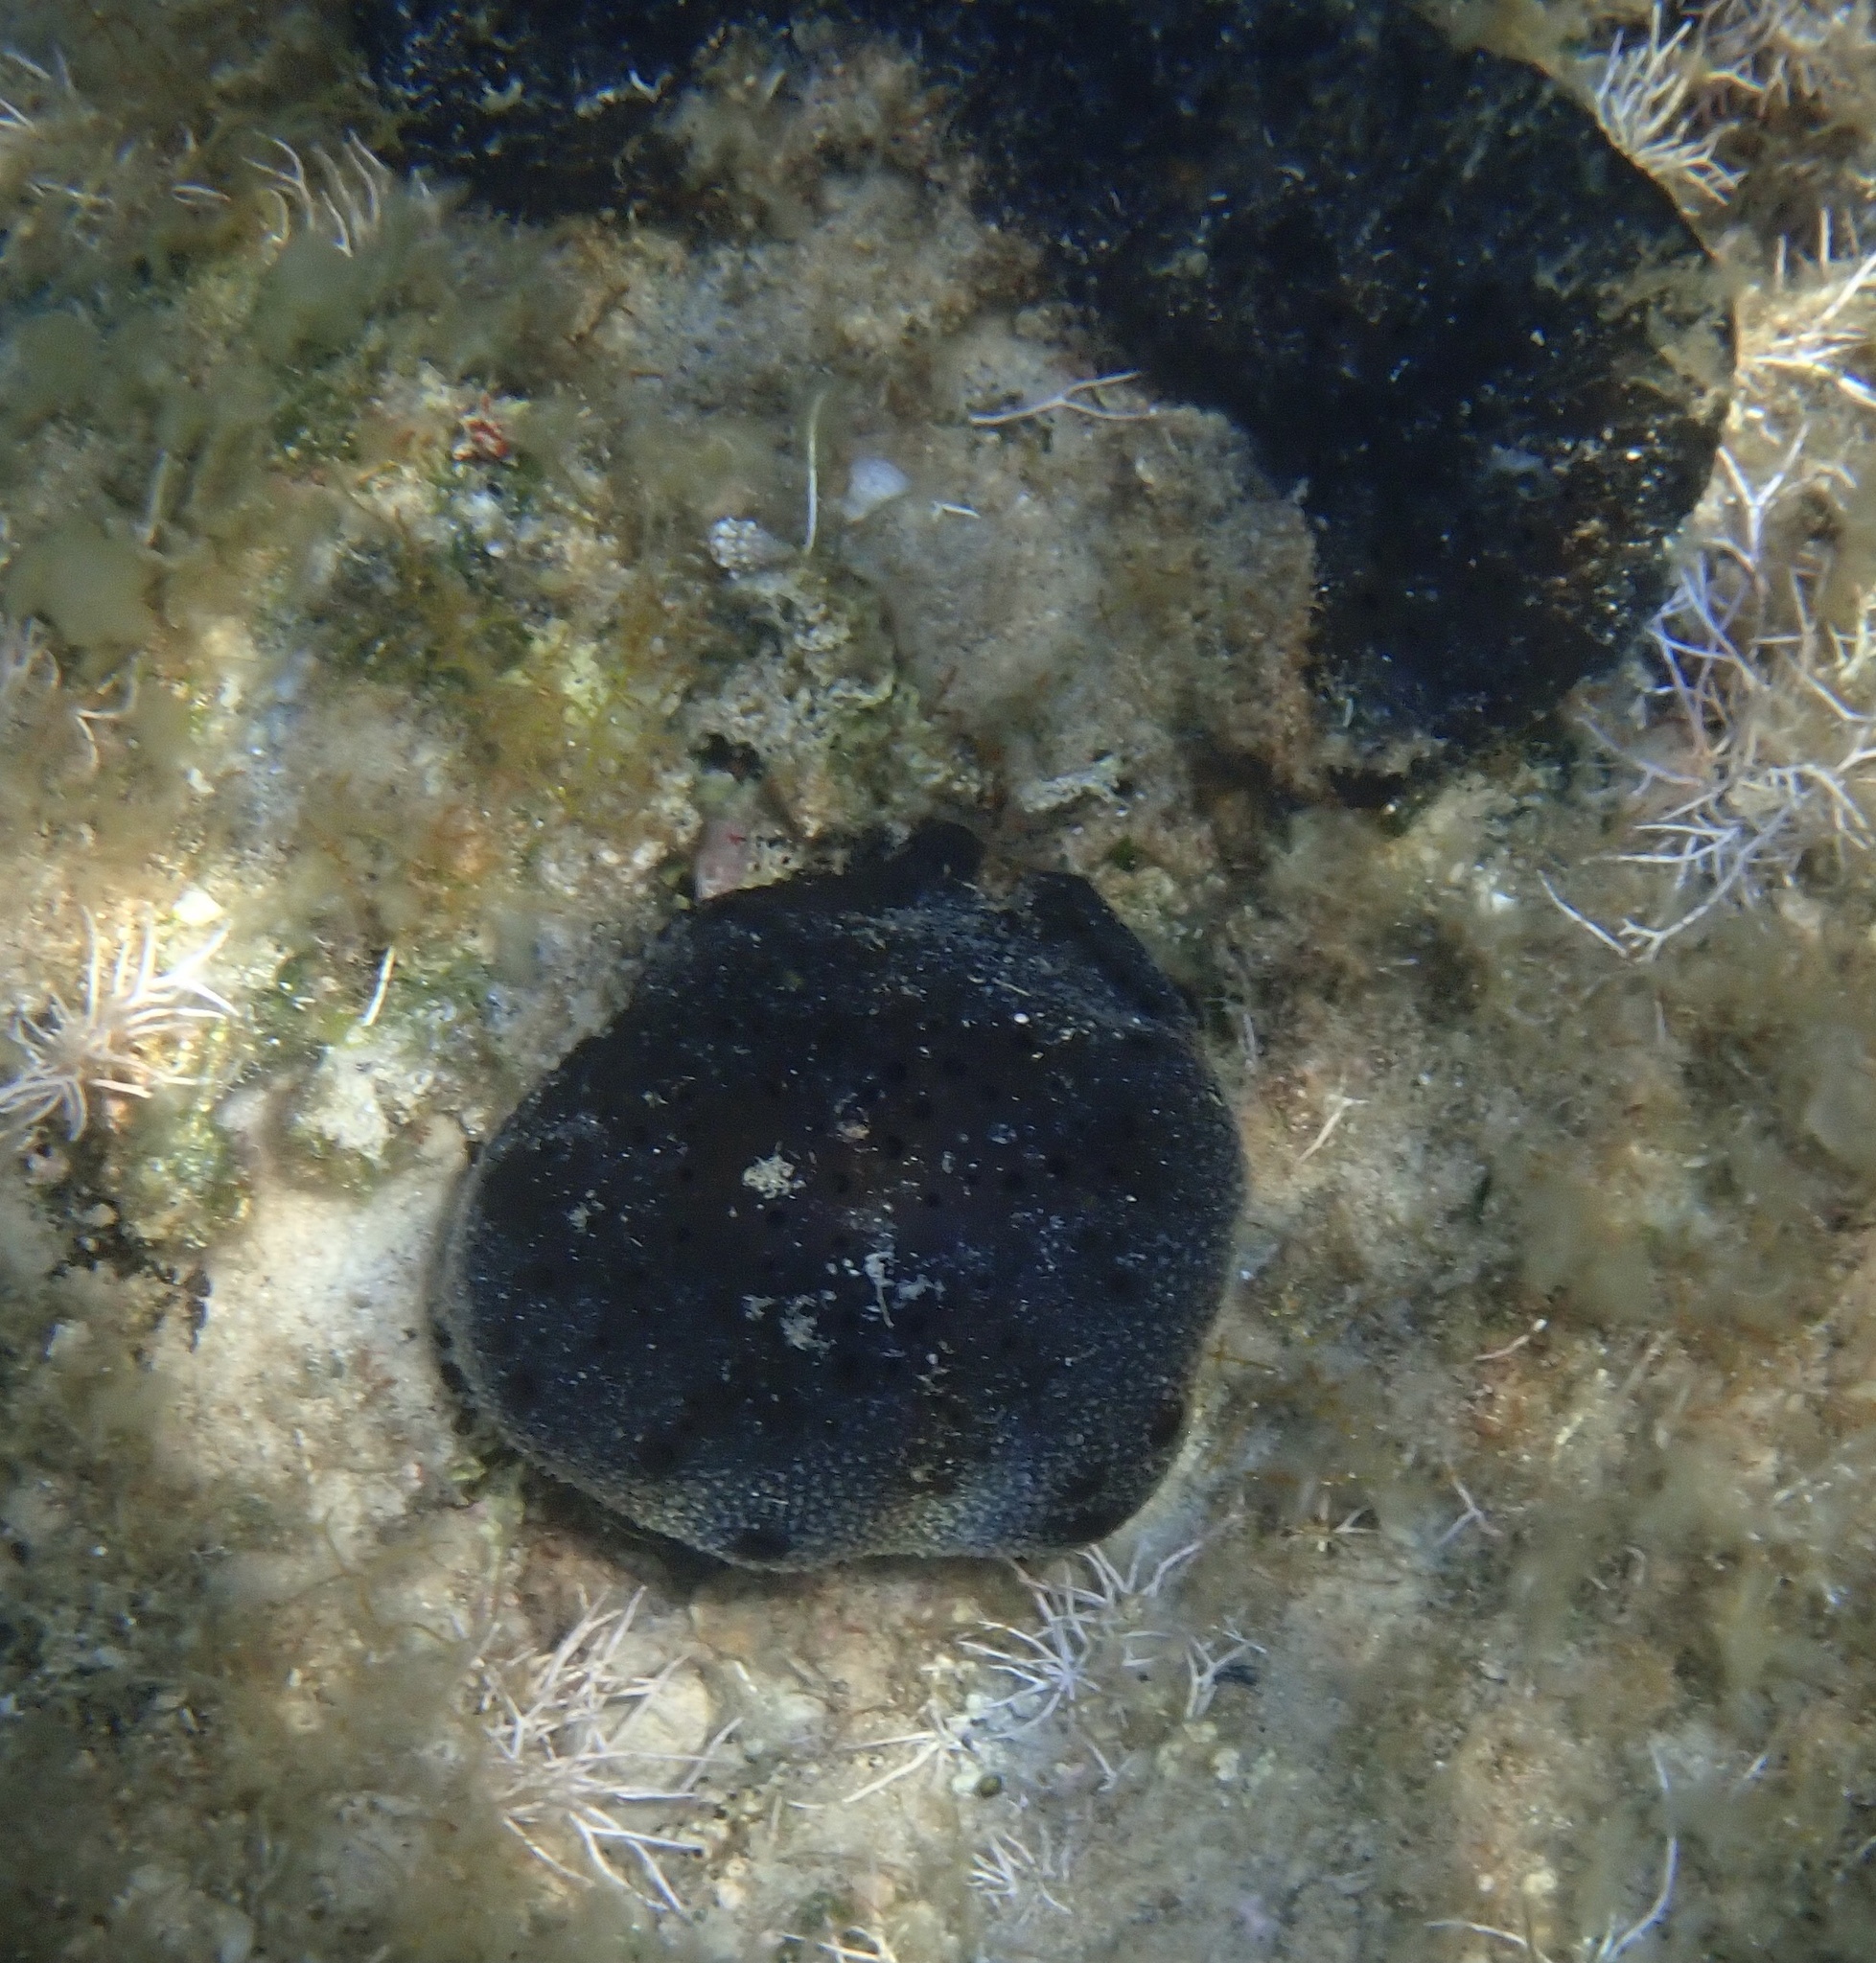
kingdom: Animalia
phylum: Porifera
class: Demospongiae
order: Dictyoceratida
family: Irciniidae
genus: Sarcotragus
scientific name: Sarcotragus spinosulus
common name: Black leather sponge
